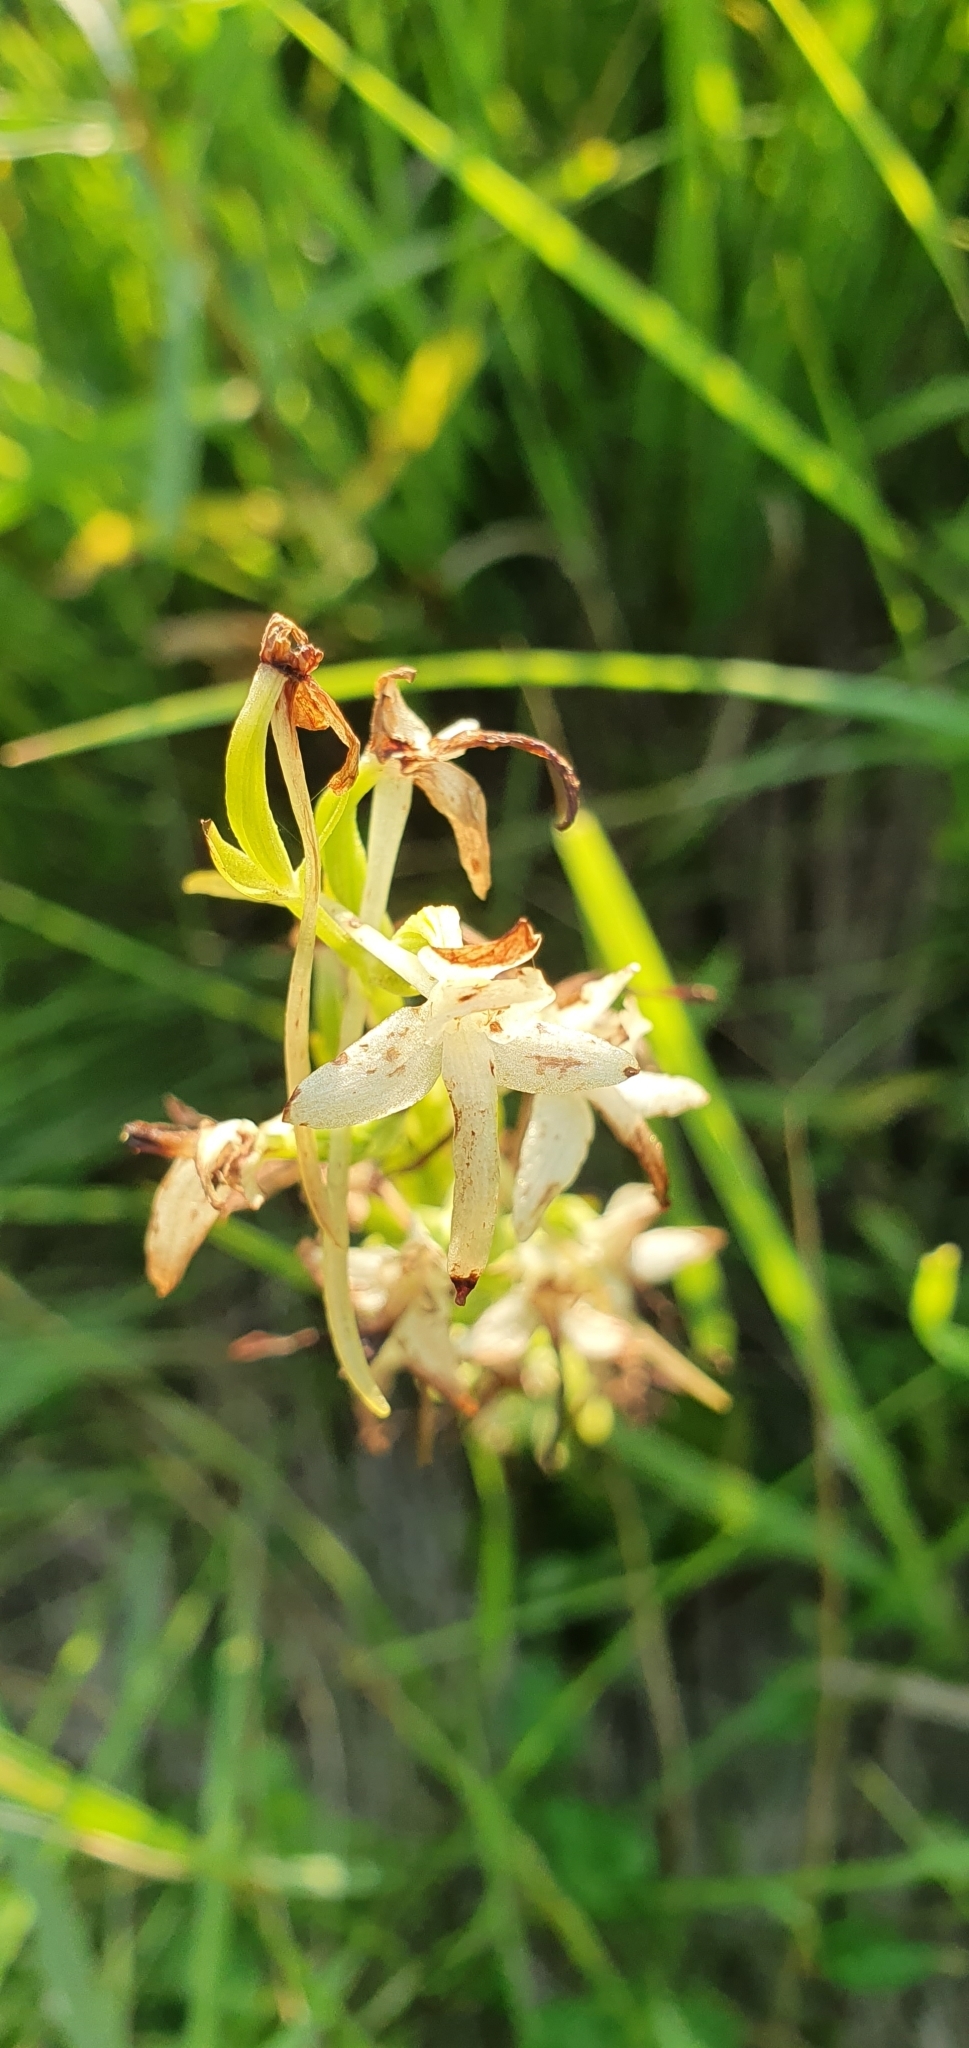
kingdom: Plantae
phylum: Tracheophyta
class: Liliopsida
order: Asparagales
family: Orchidaceae
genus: Platanthera
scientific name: Platanthera bifolia
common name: Lesser butterfly-orchid
